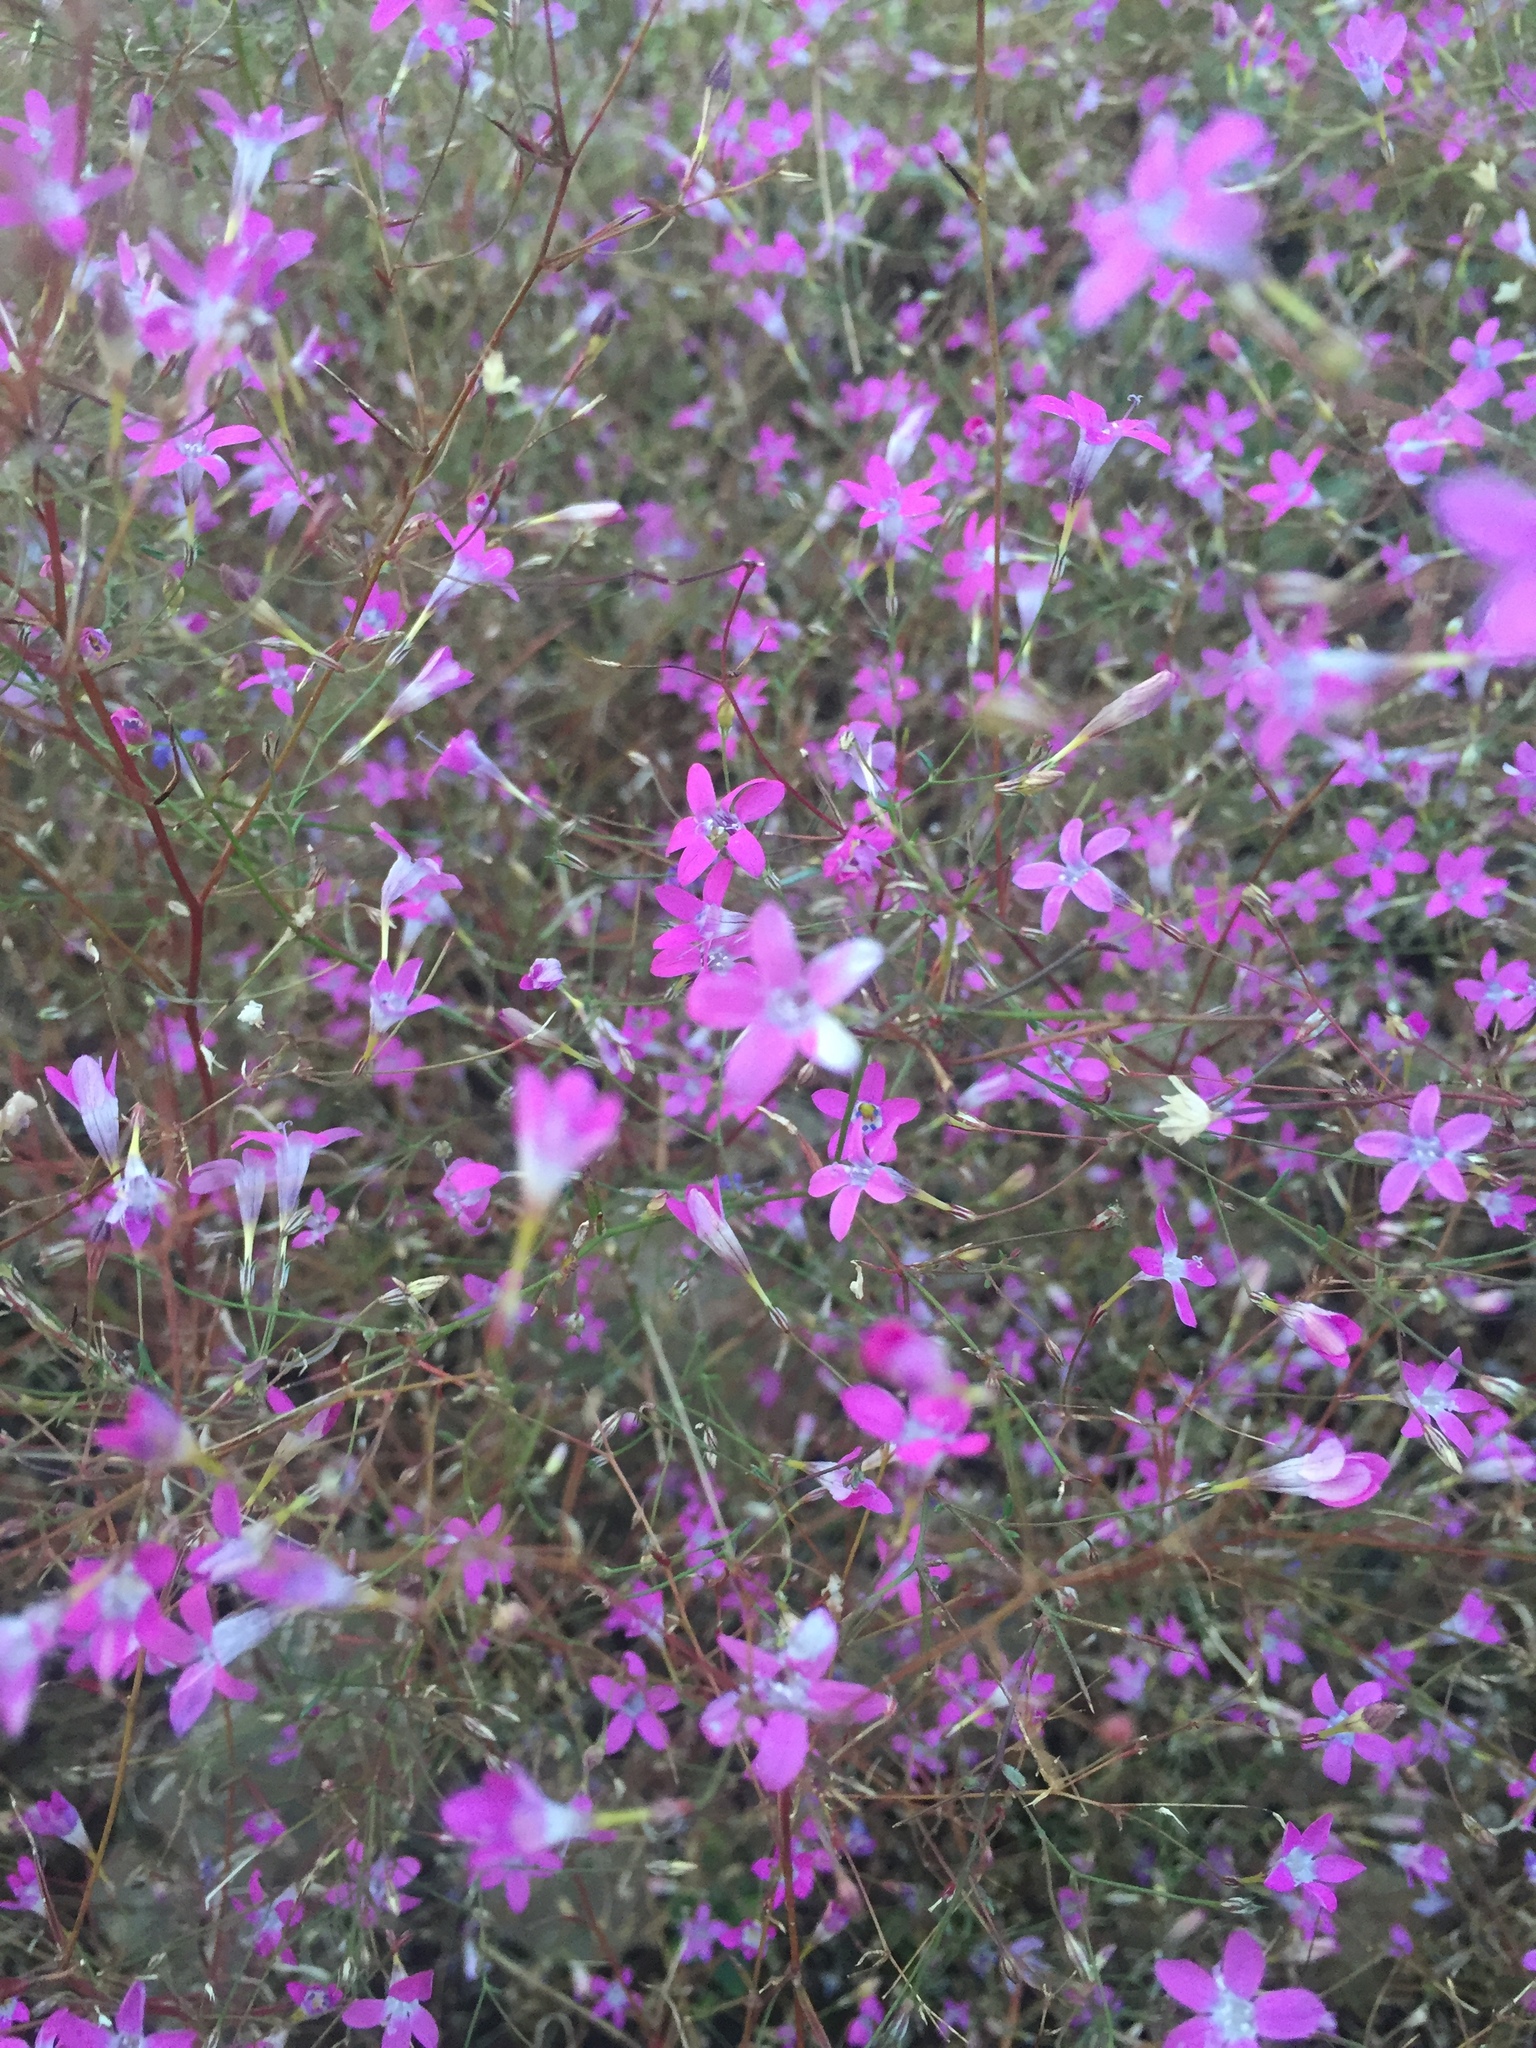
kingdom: Plantae
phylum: Tracheophyta
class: Magnoliopsida
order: Ericales
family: Polemoniaceae
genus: Navarretia
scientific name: Navarretia leptalea
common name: Bridges' pincushionplant
